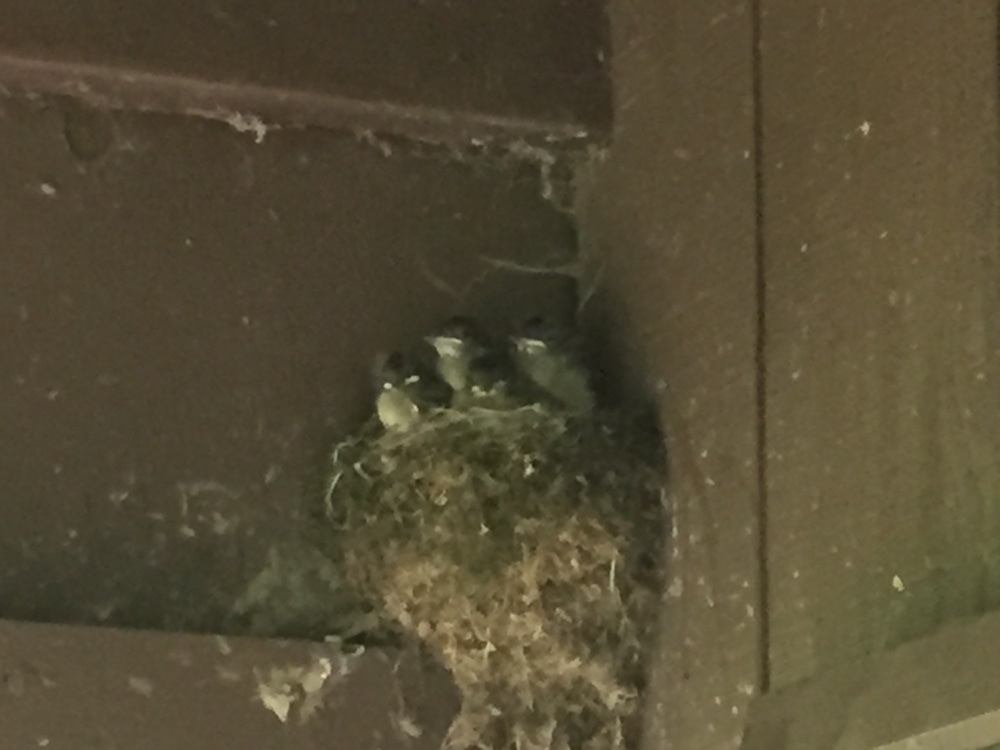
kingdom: Animalia
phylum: Chordata
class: Aves
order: Passeriformes
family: Tyrannidae
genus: Sayornis
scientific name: Sayornis phoebe
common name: Eastern phoebe
